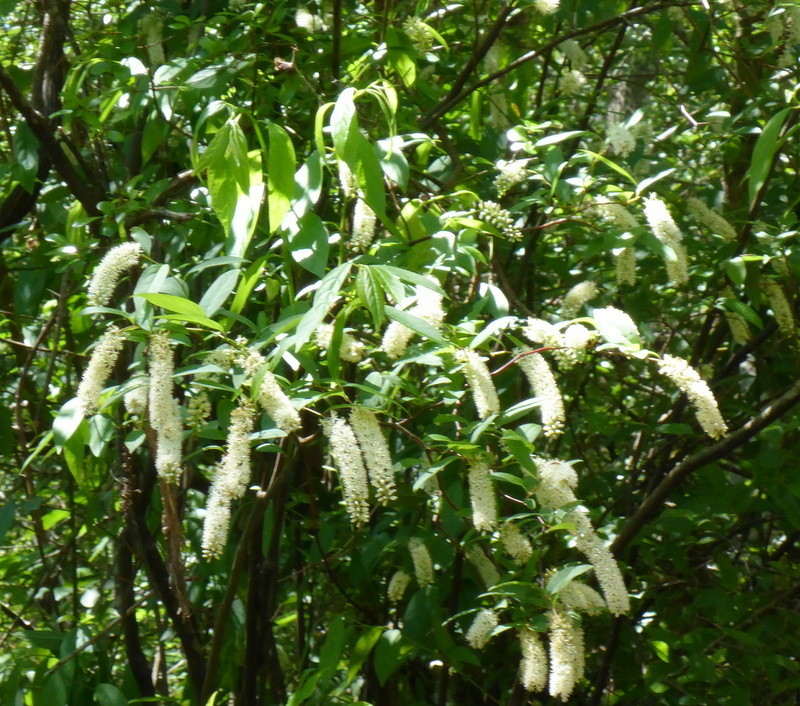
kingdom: Plantae
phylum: Tracheophyta
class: Magnoliopsida
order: Saxifragales
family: Iteaceae
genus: Itea
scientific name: Itea virginica
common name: Sweetspire
